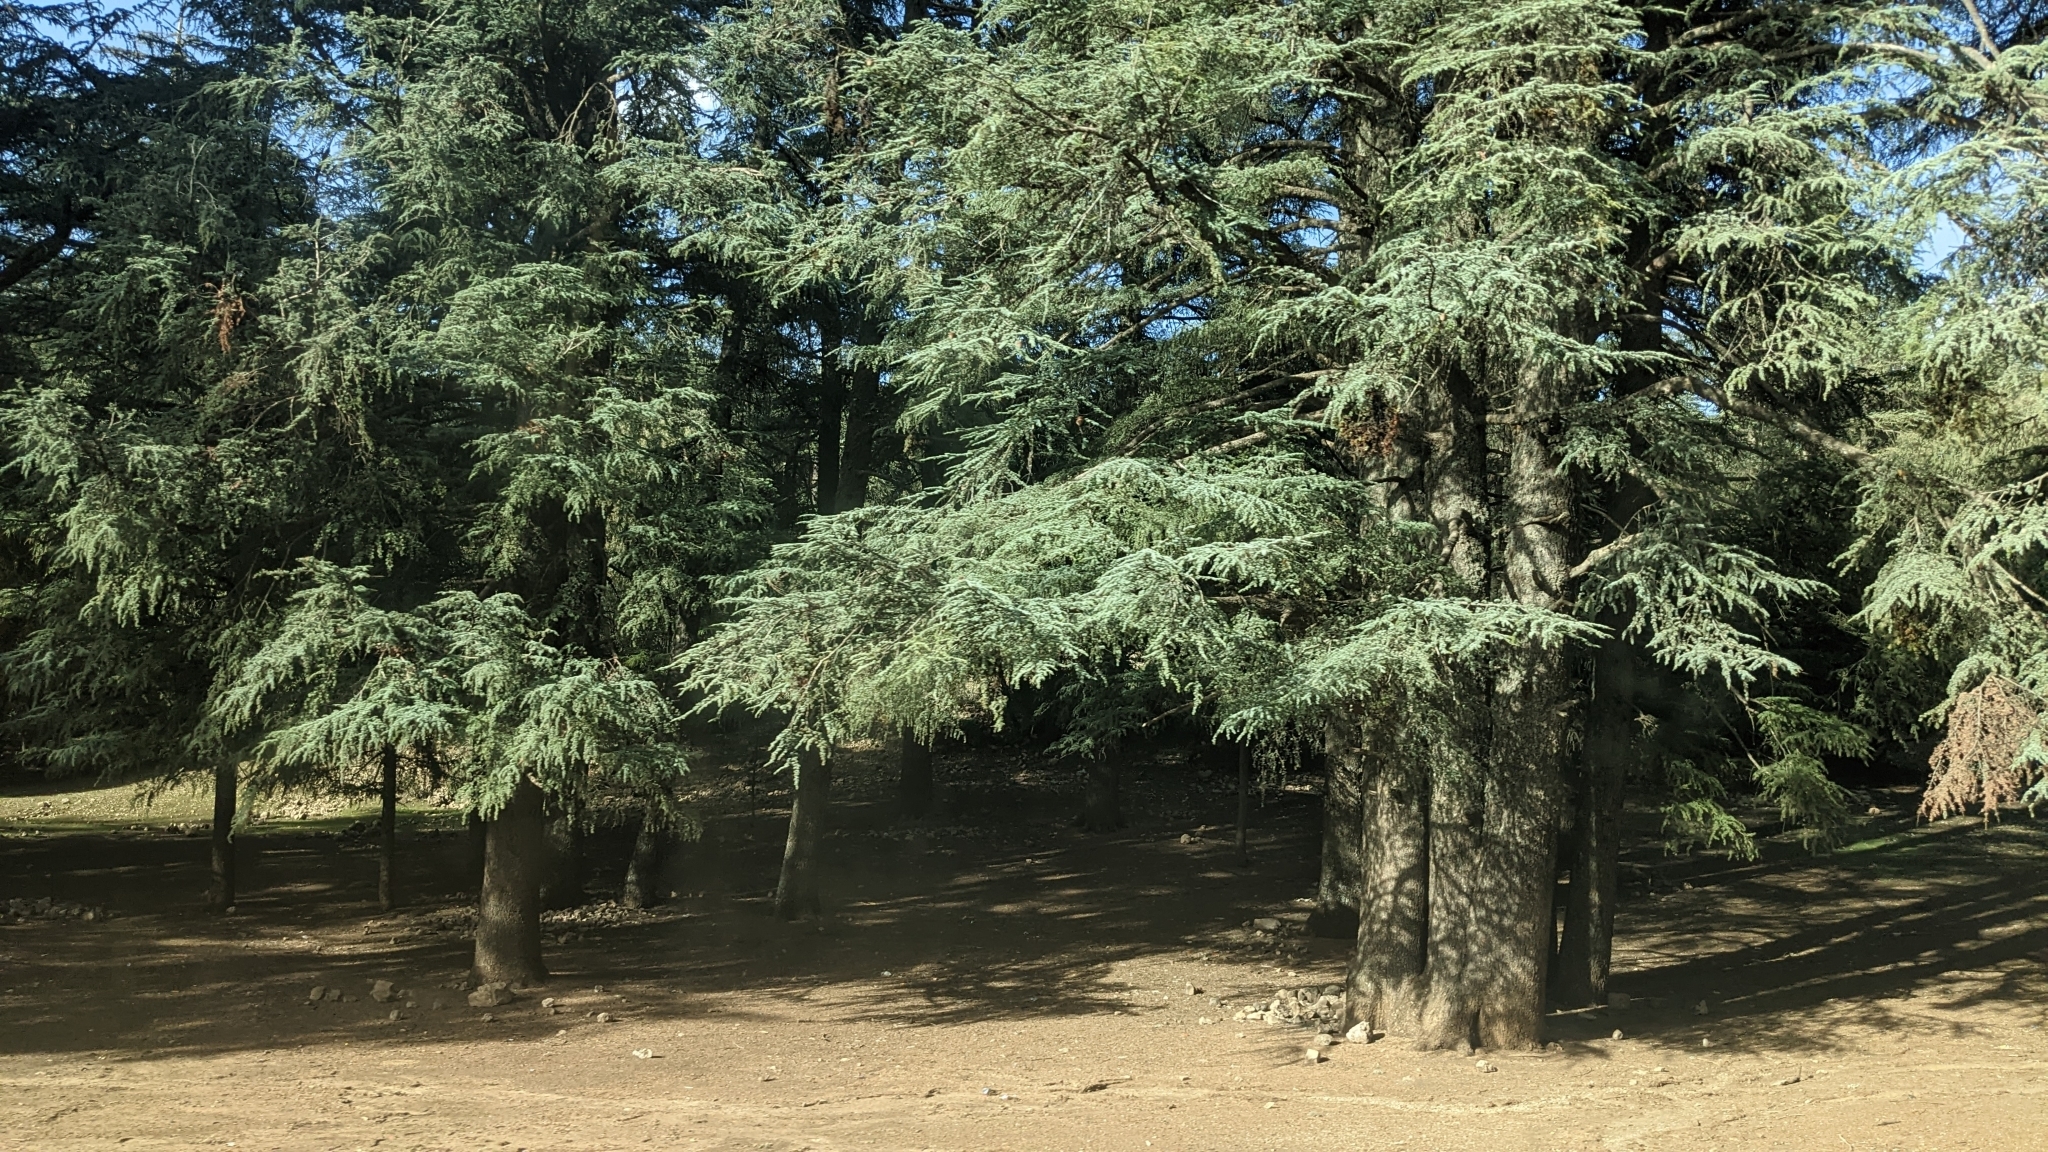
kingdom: Plantae
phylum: Tracheophyta
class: Pinopsida
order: Pinales
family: Pinaceae
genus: Cedrus
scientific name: Cedrus atlantica
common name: Atlas cedar
